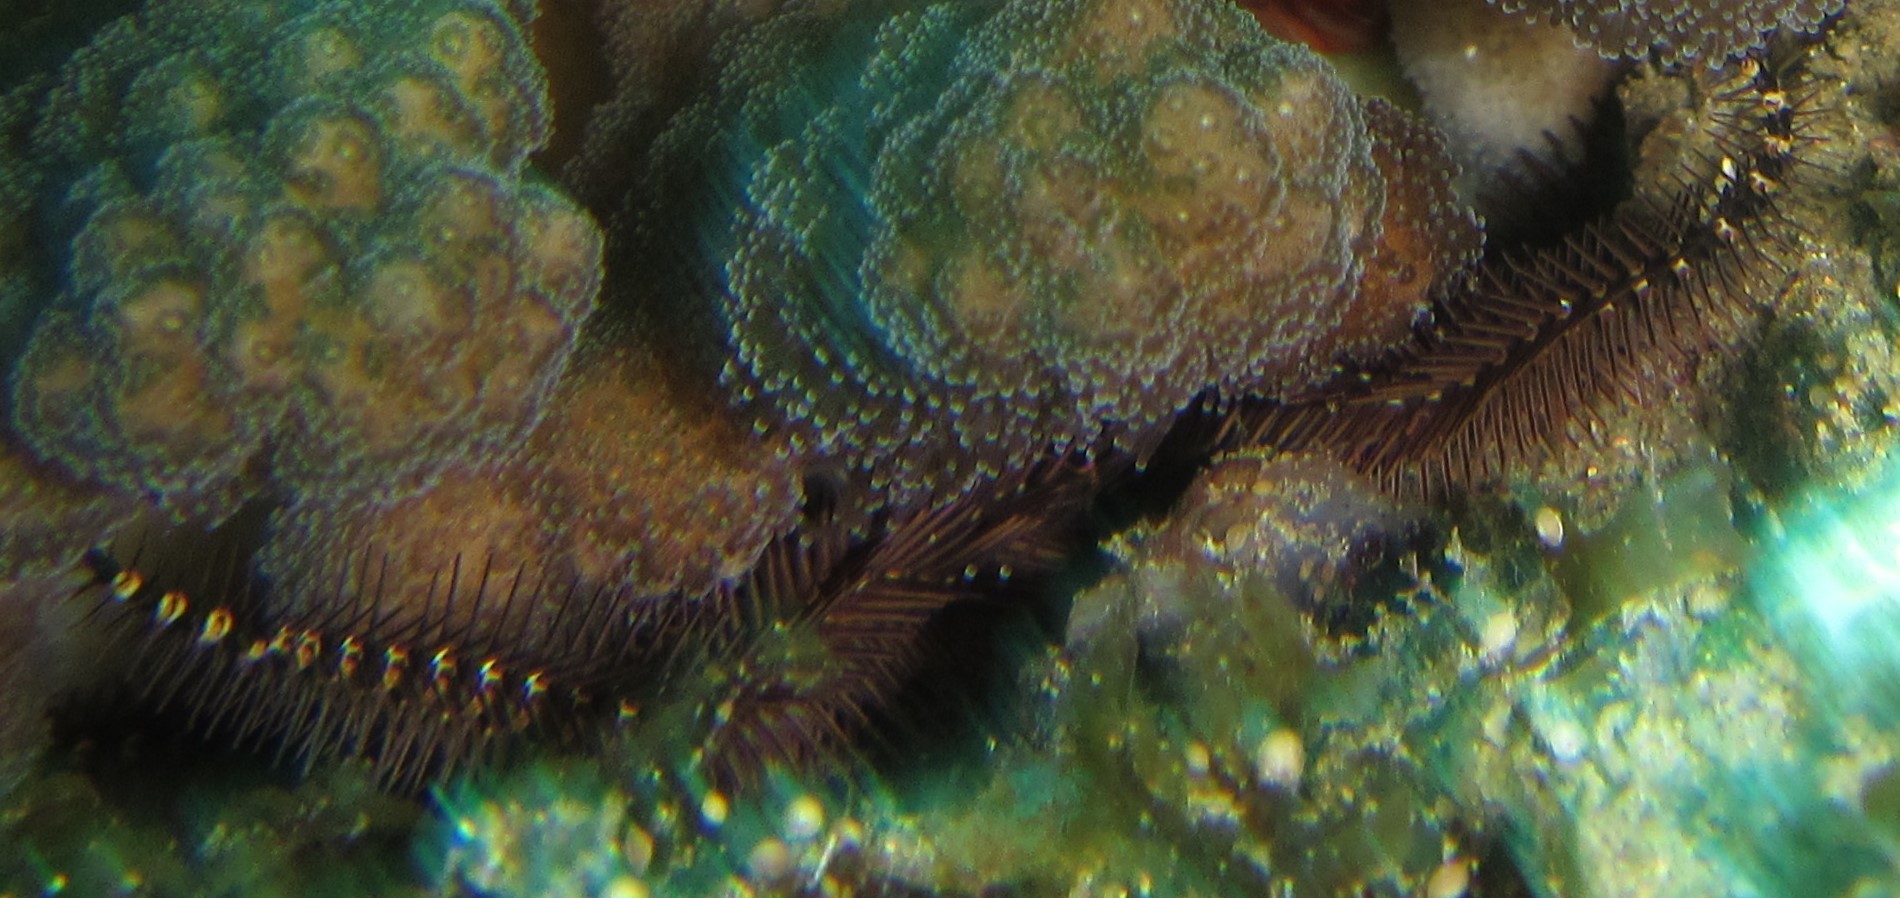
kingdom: Animalia
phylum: Echinodermata
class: Ophiuroidea
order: Ophiacanthida
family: Ophiocomidae
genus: Breviturma
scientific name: Breviturma pica
